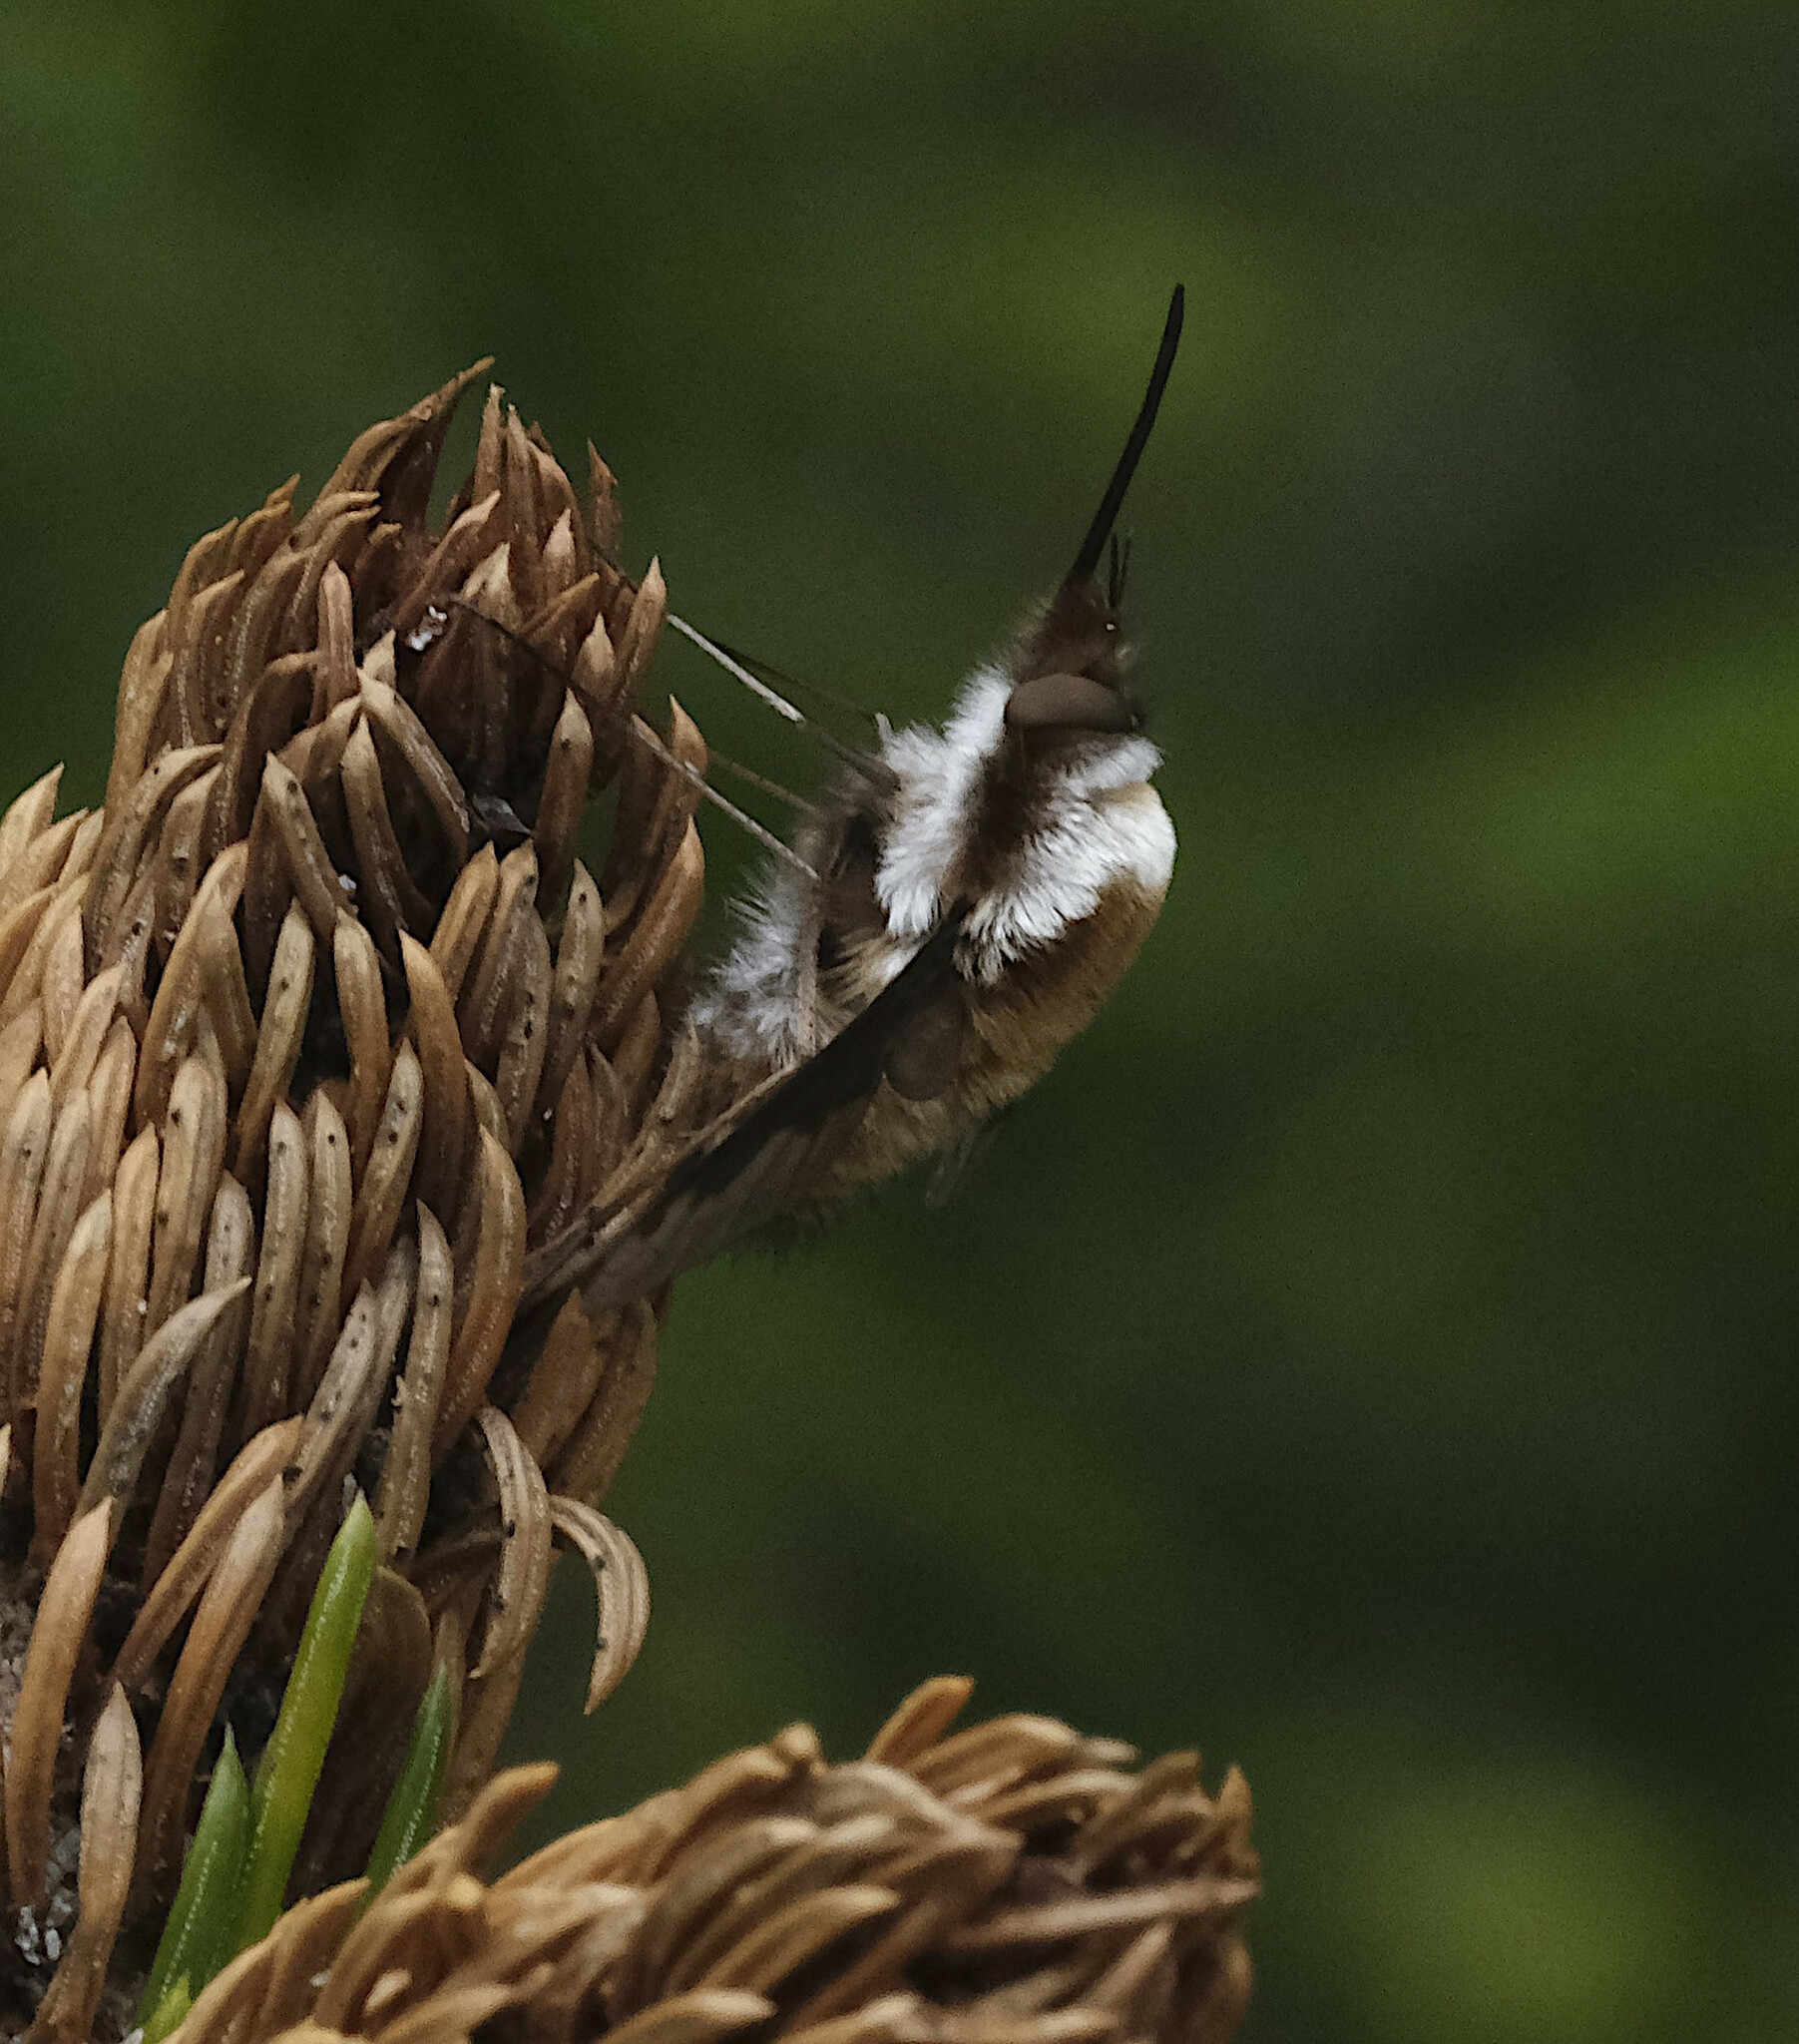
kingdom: Animalia
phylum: Arthropoda
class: Insecta
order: Diptera
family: Bombyliidae
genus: Bombylius
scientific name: Bombylius major
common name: Bee fly
